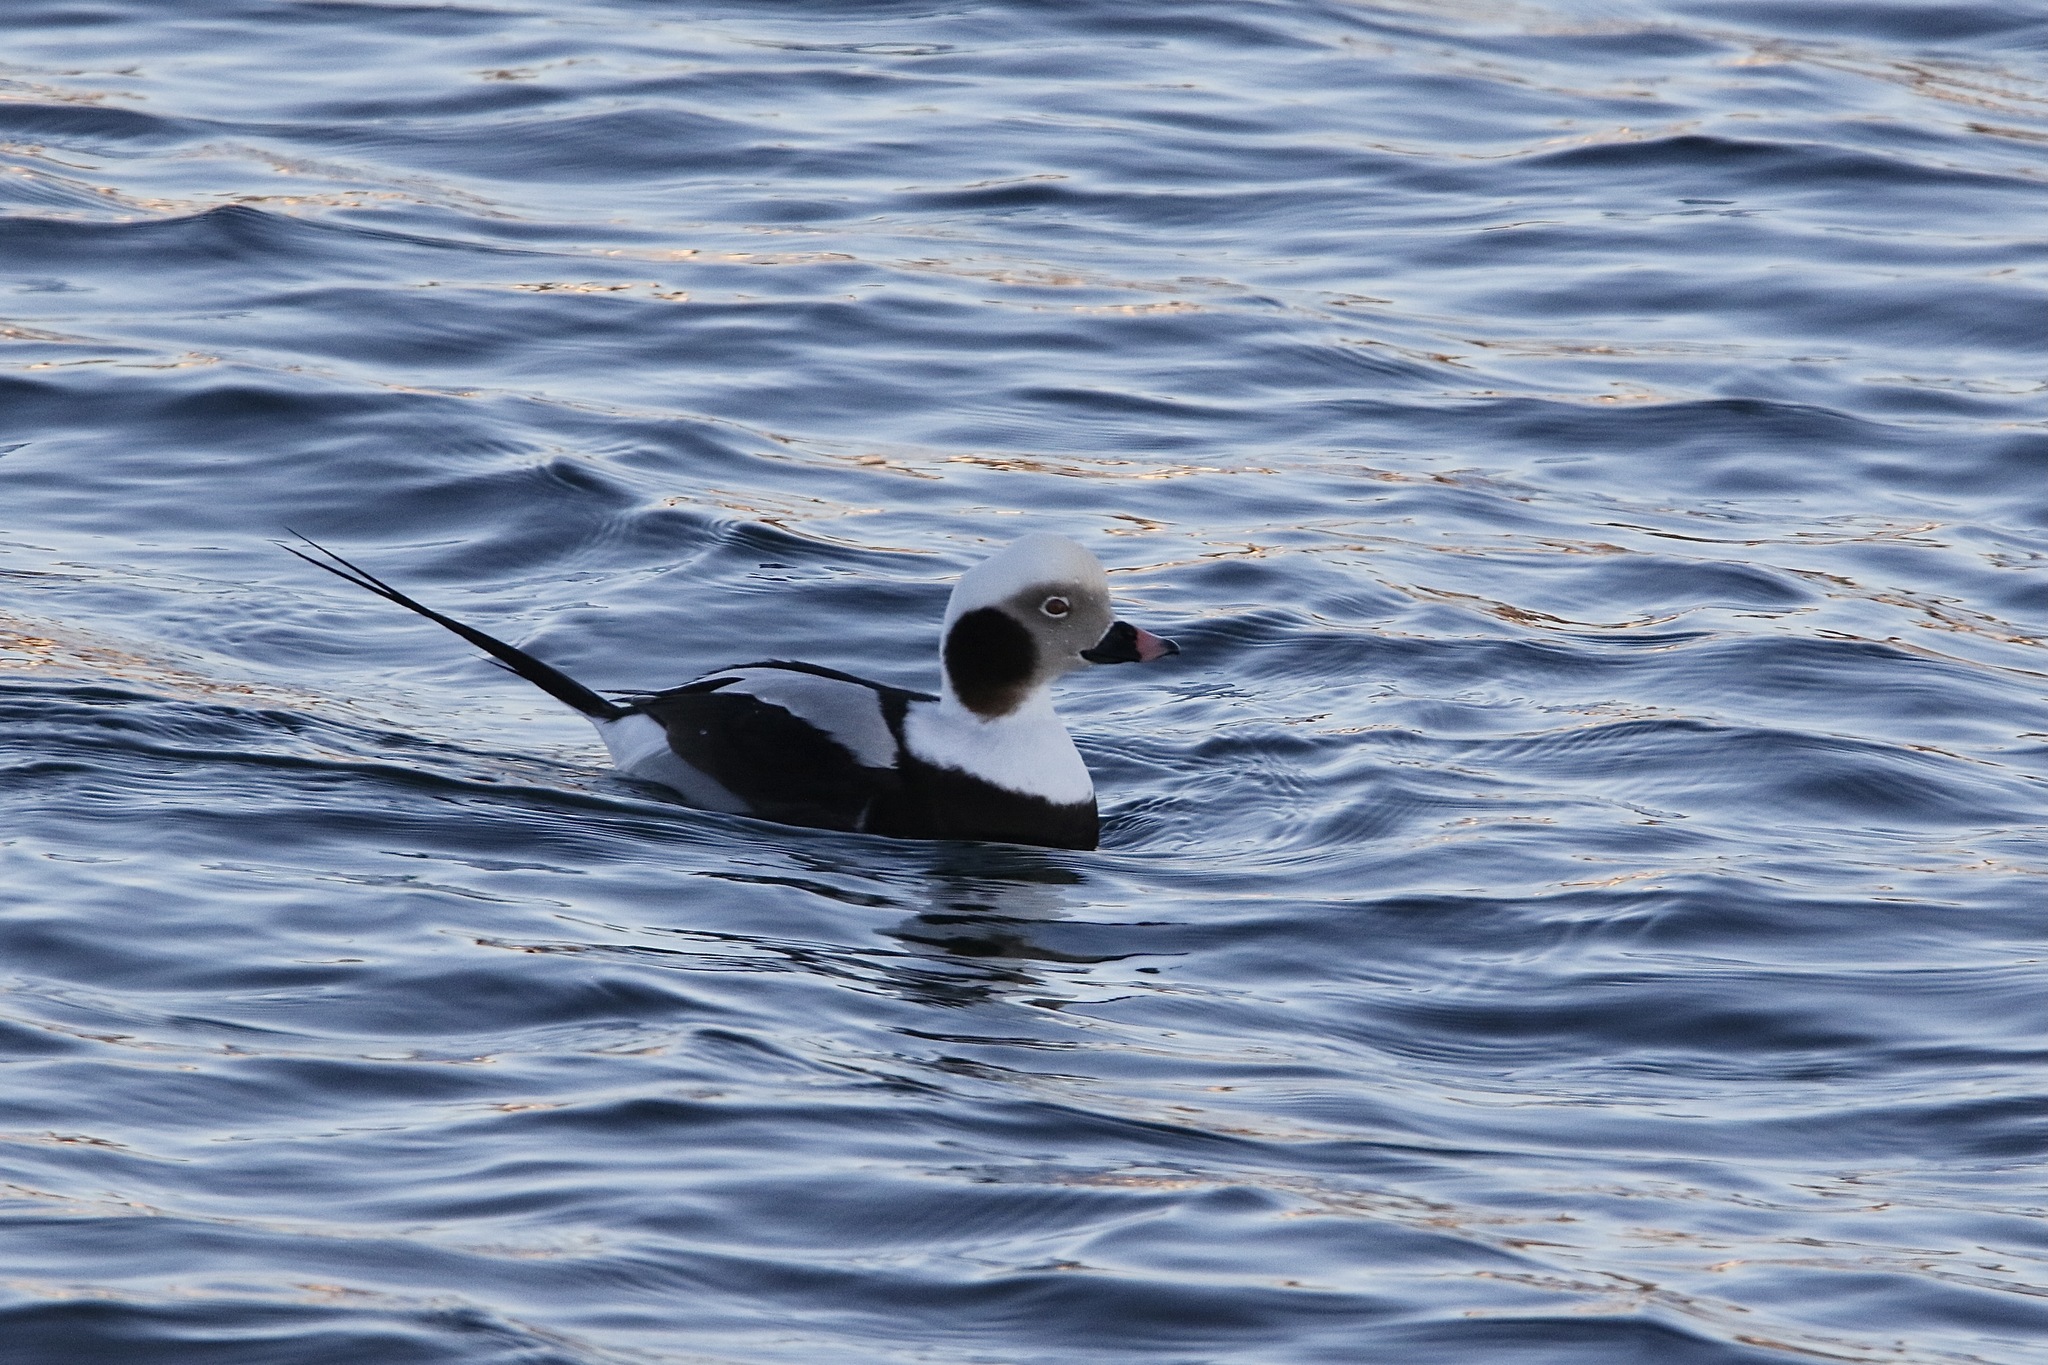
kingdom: Animalia
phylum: Chordata
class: Aves
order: Anseriformes
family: Anatidae
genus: Clangula
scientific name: Clangula hyemalis
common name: Long-tailed duck
